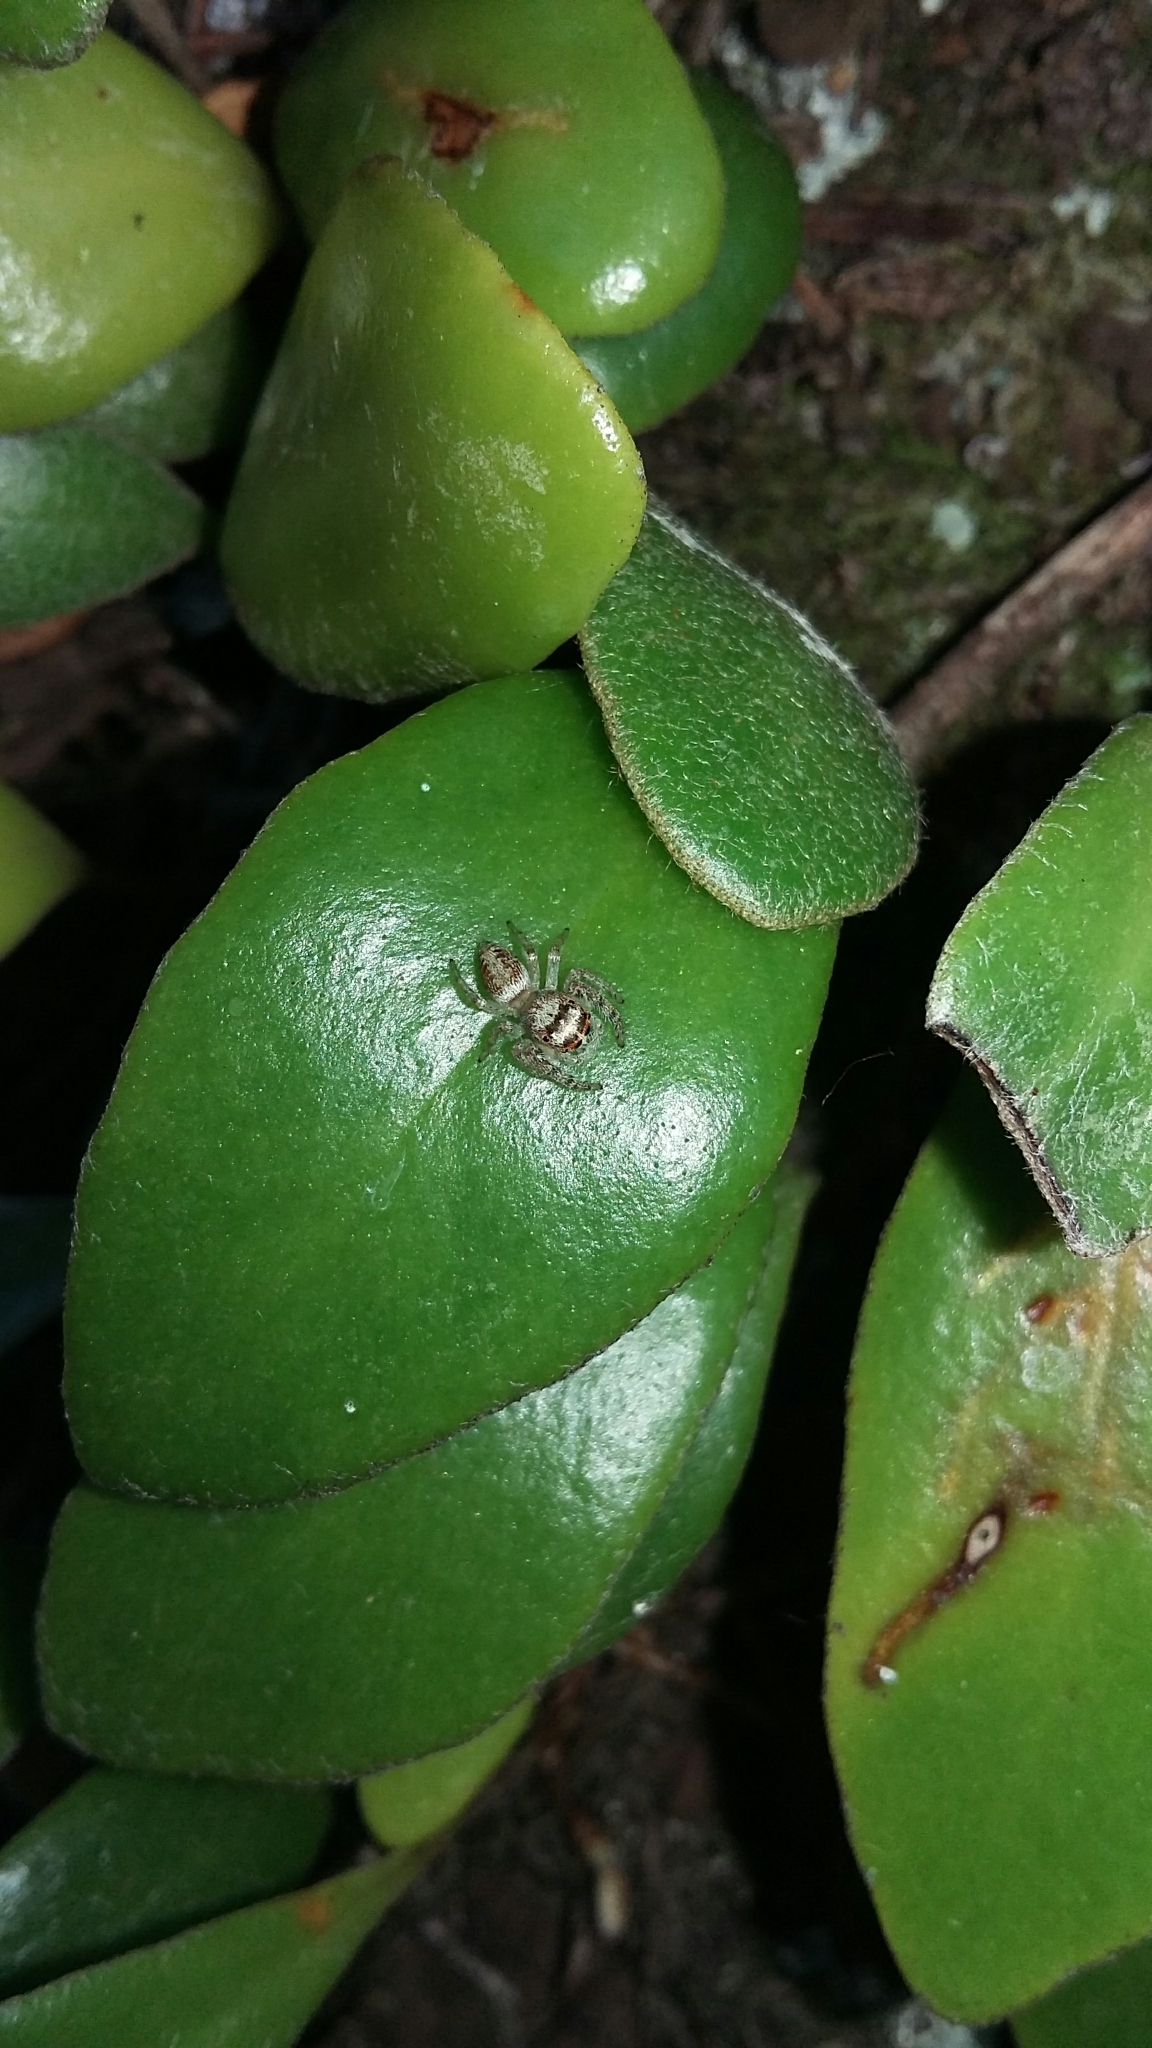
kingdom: Animalia
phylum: Arthropoda
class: Arachnida
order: Araneae
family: Salticidae
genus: Opisthoncus
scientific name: Opisthoncus polyphemus
